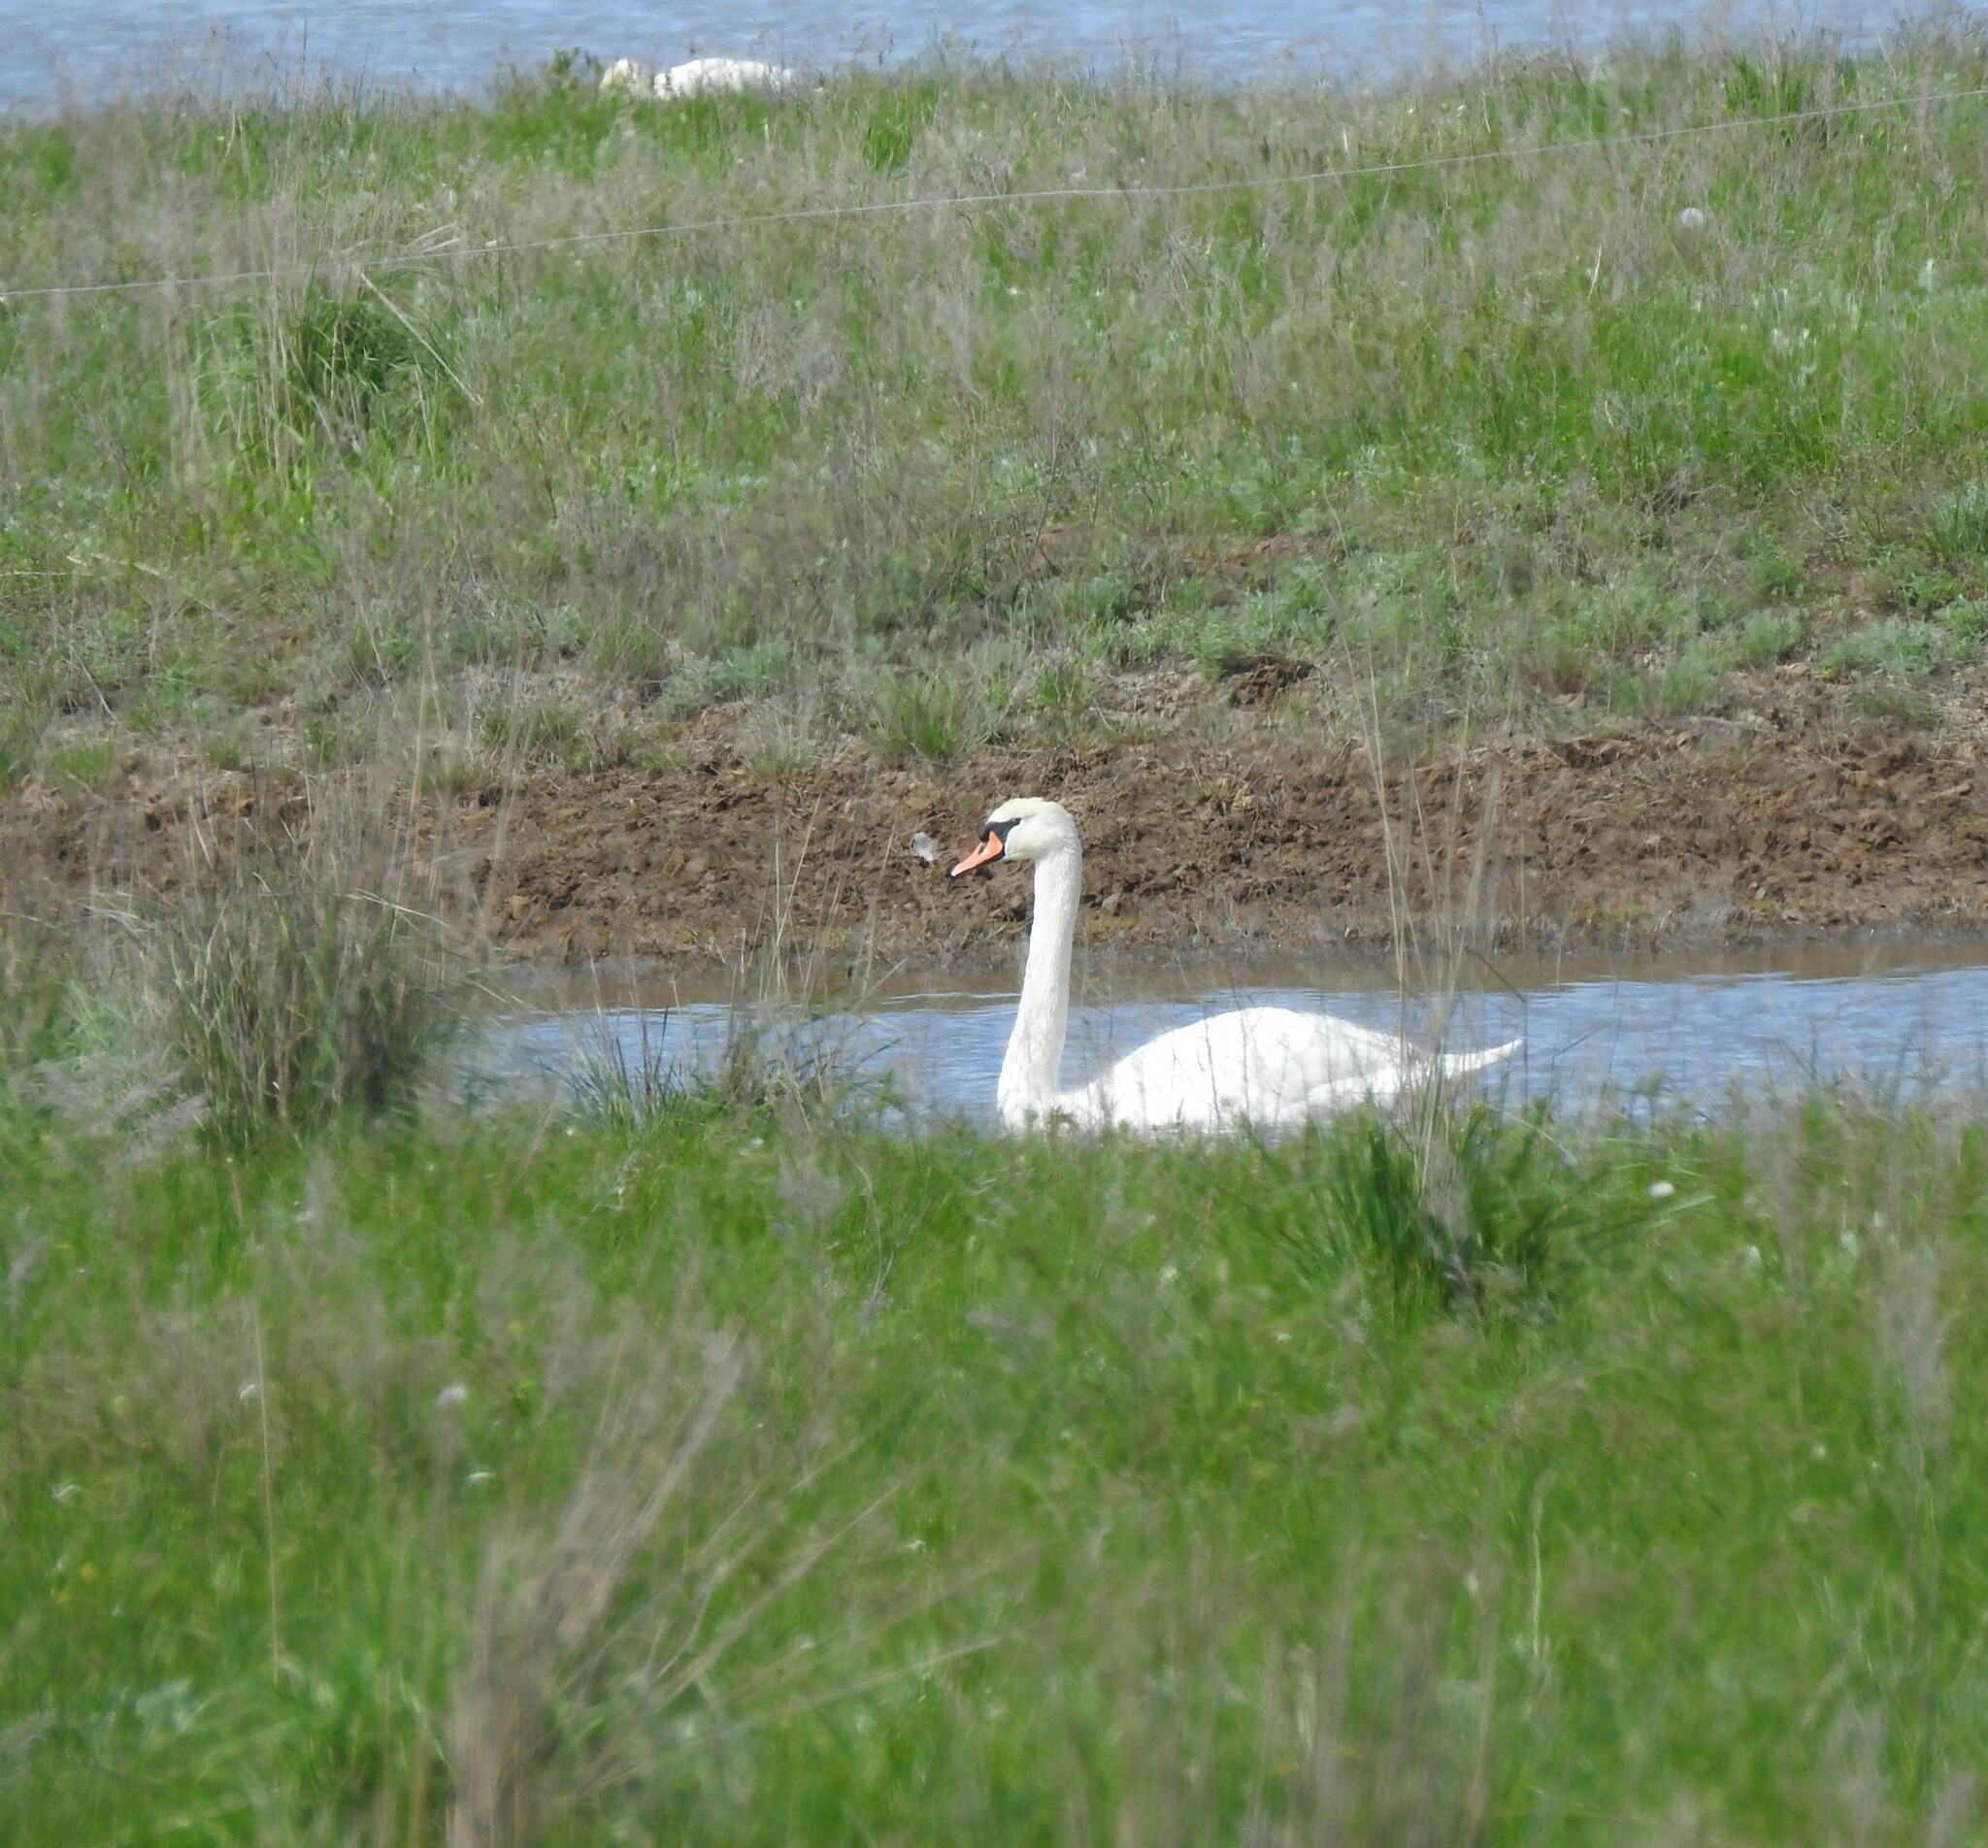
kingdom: Animalia
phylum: Chordata
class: Aves
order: Anseriformes
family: Anatidae
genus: Cygnus
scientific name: Cygnus olor
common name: Mute swan
